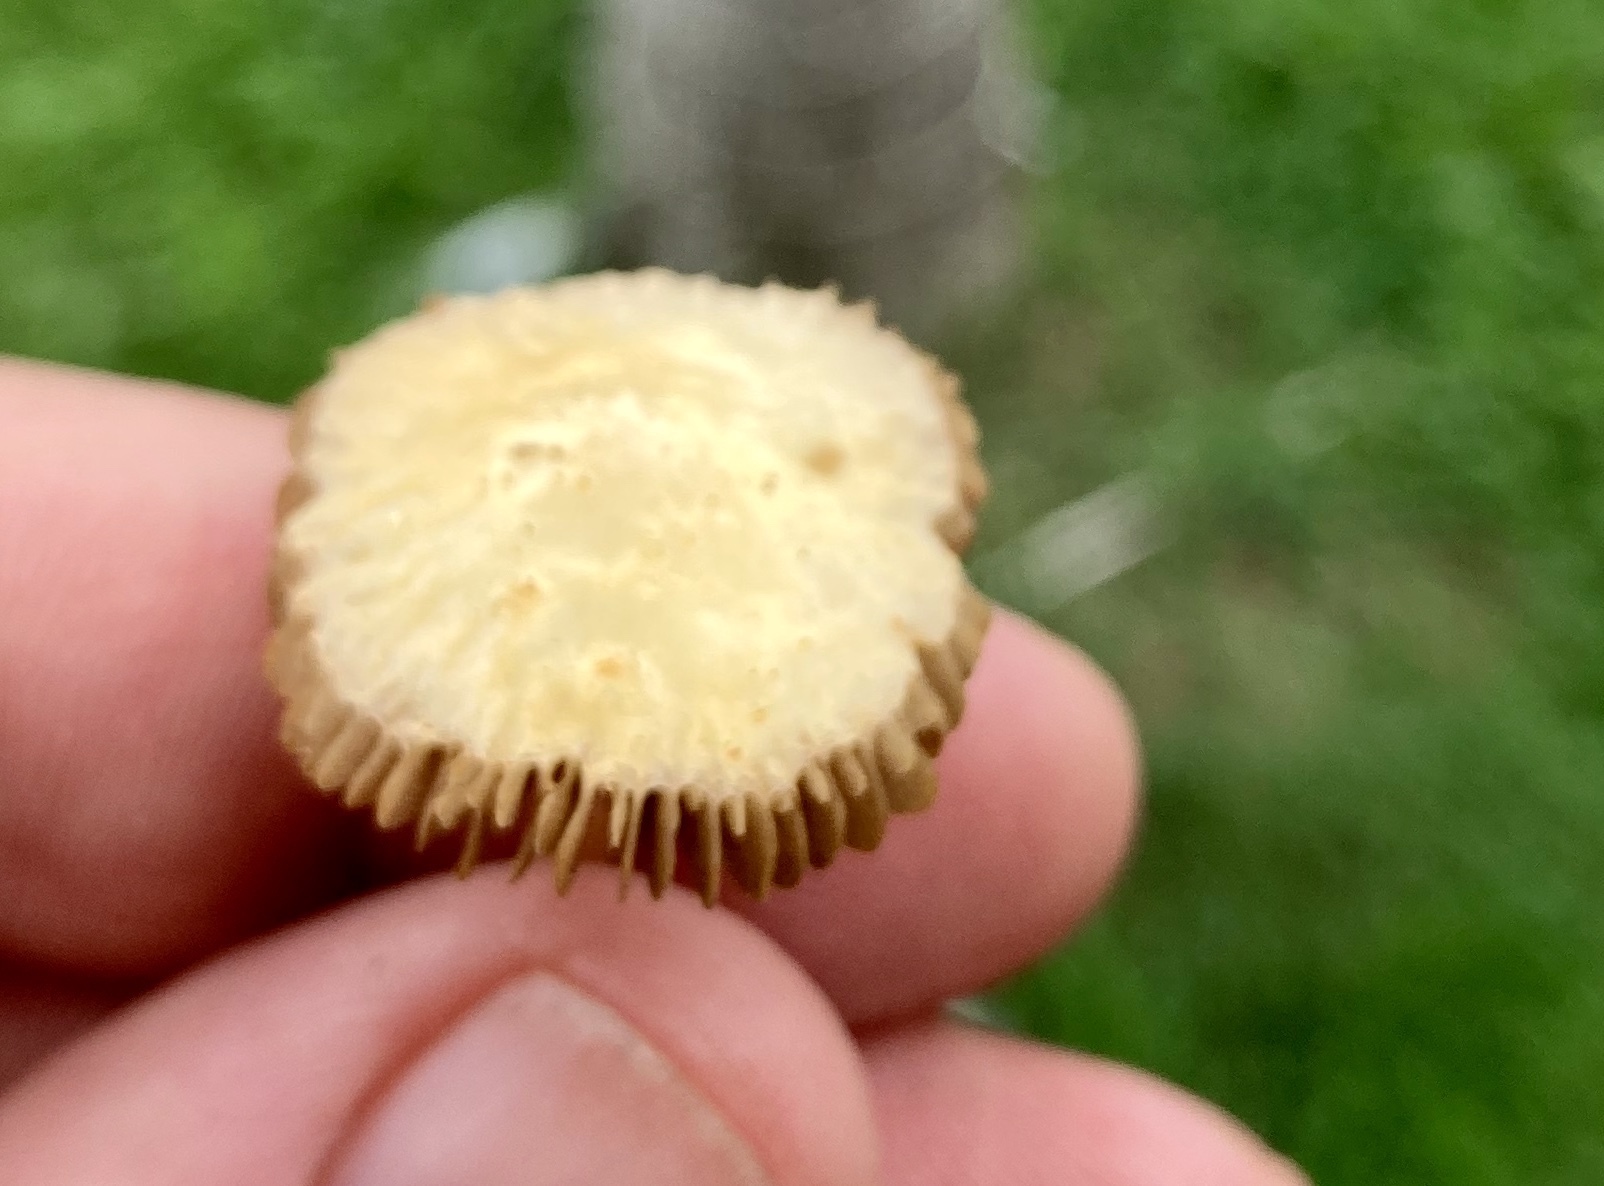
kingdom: Fungi
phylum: Basidiomycota
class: Agaricomycetes
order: Agaricales
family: Strophariaceae
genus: Agrocybe
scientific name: Agrocybe pediades
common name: Common fieldcap
